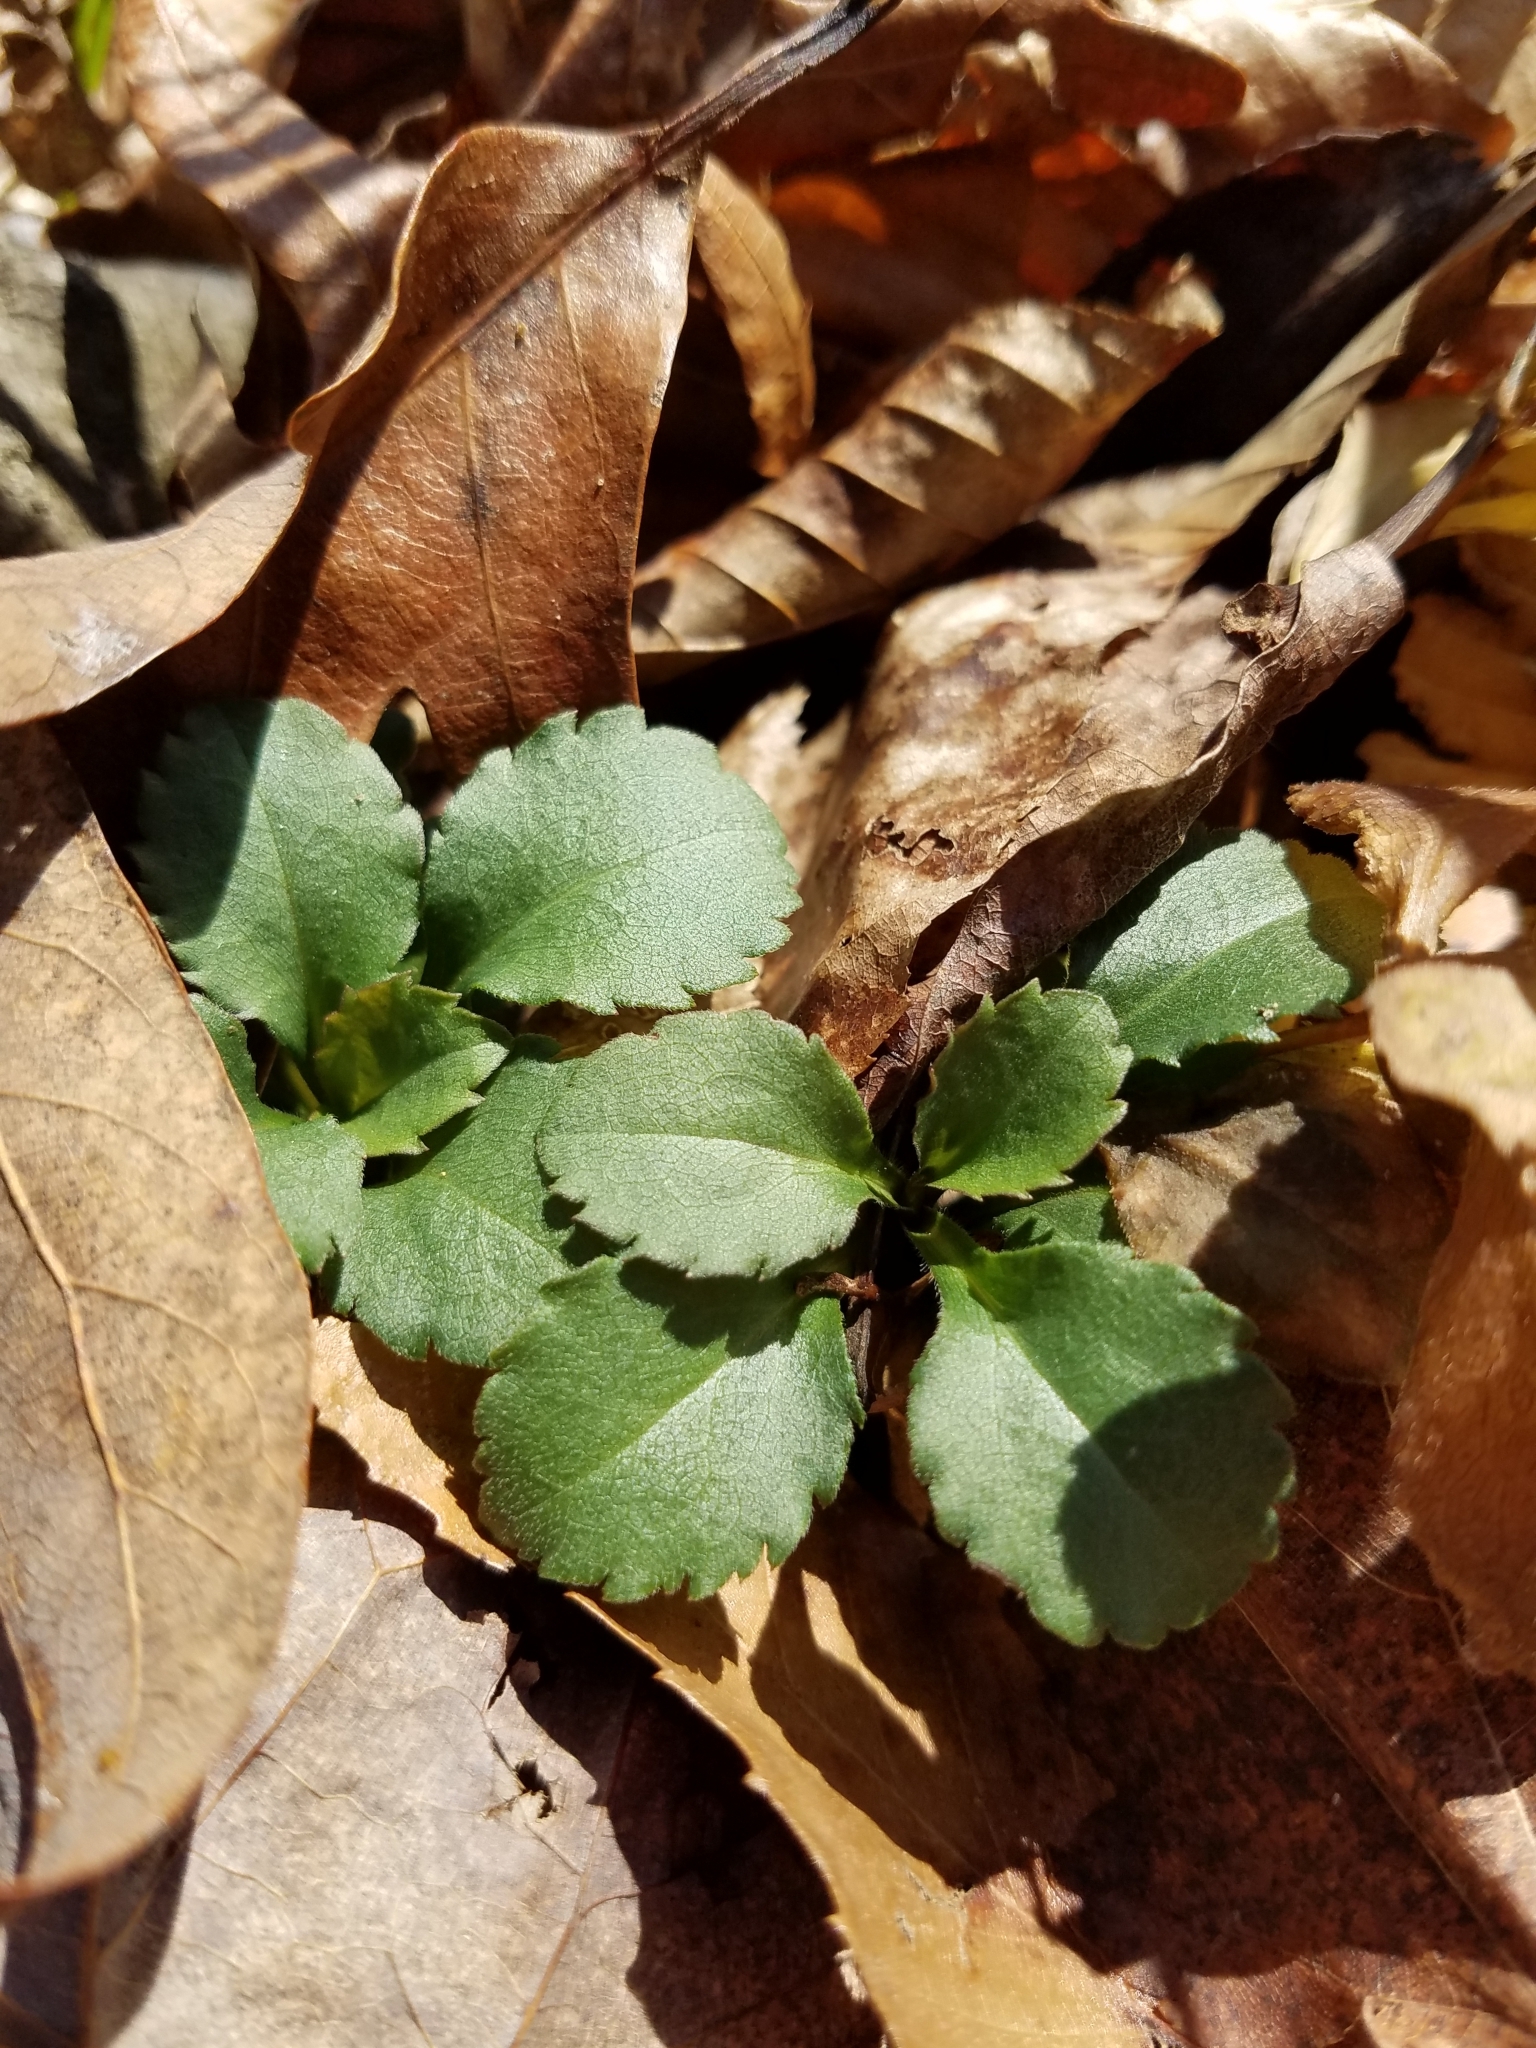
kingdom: Plantae
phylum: Tracheophyta
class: Magnoliopsida
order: Asterales
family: Asteraceae
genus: Chrysogonum
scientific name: Chrysogonum virginianum
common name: Golden-knee
